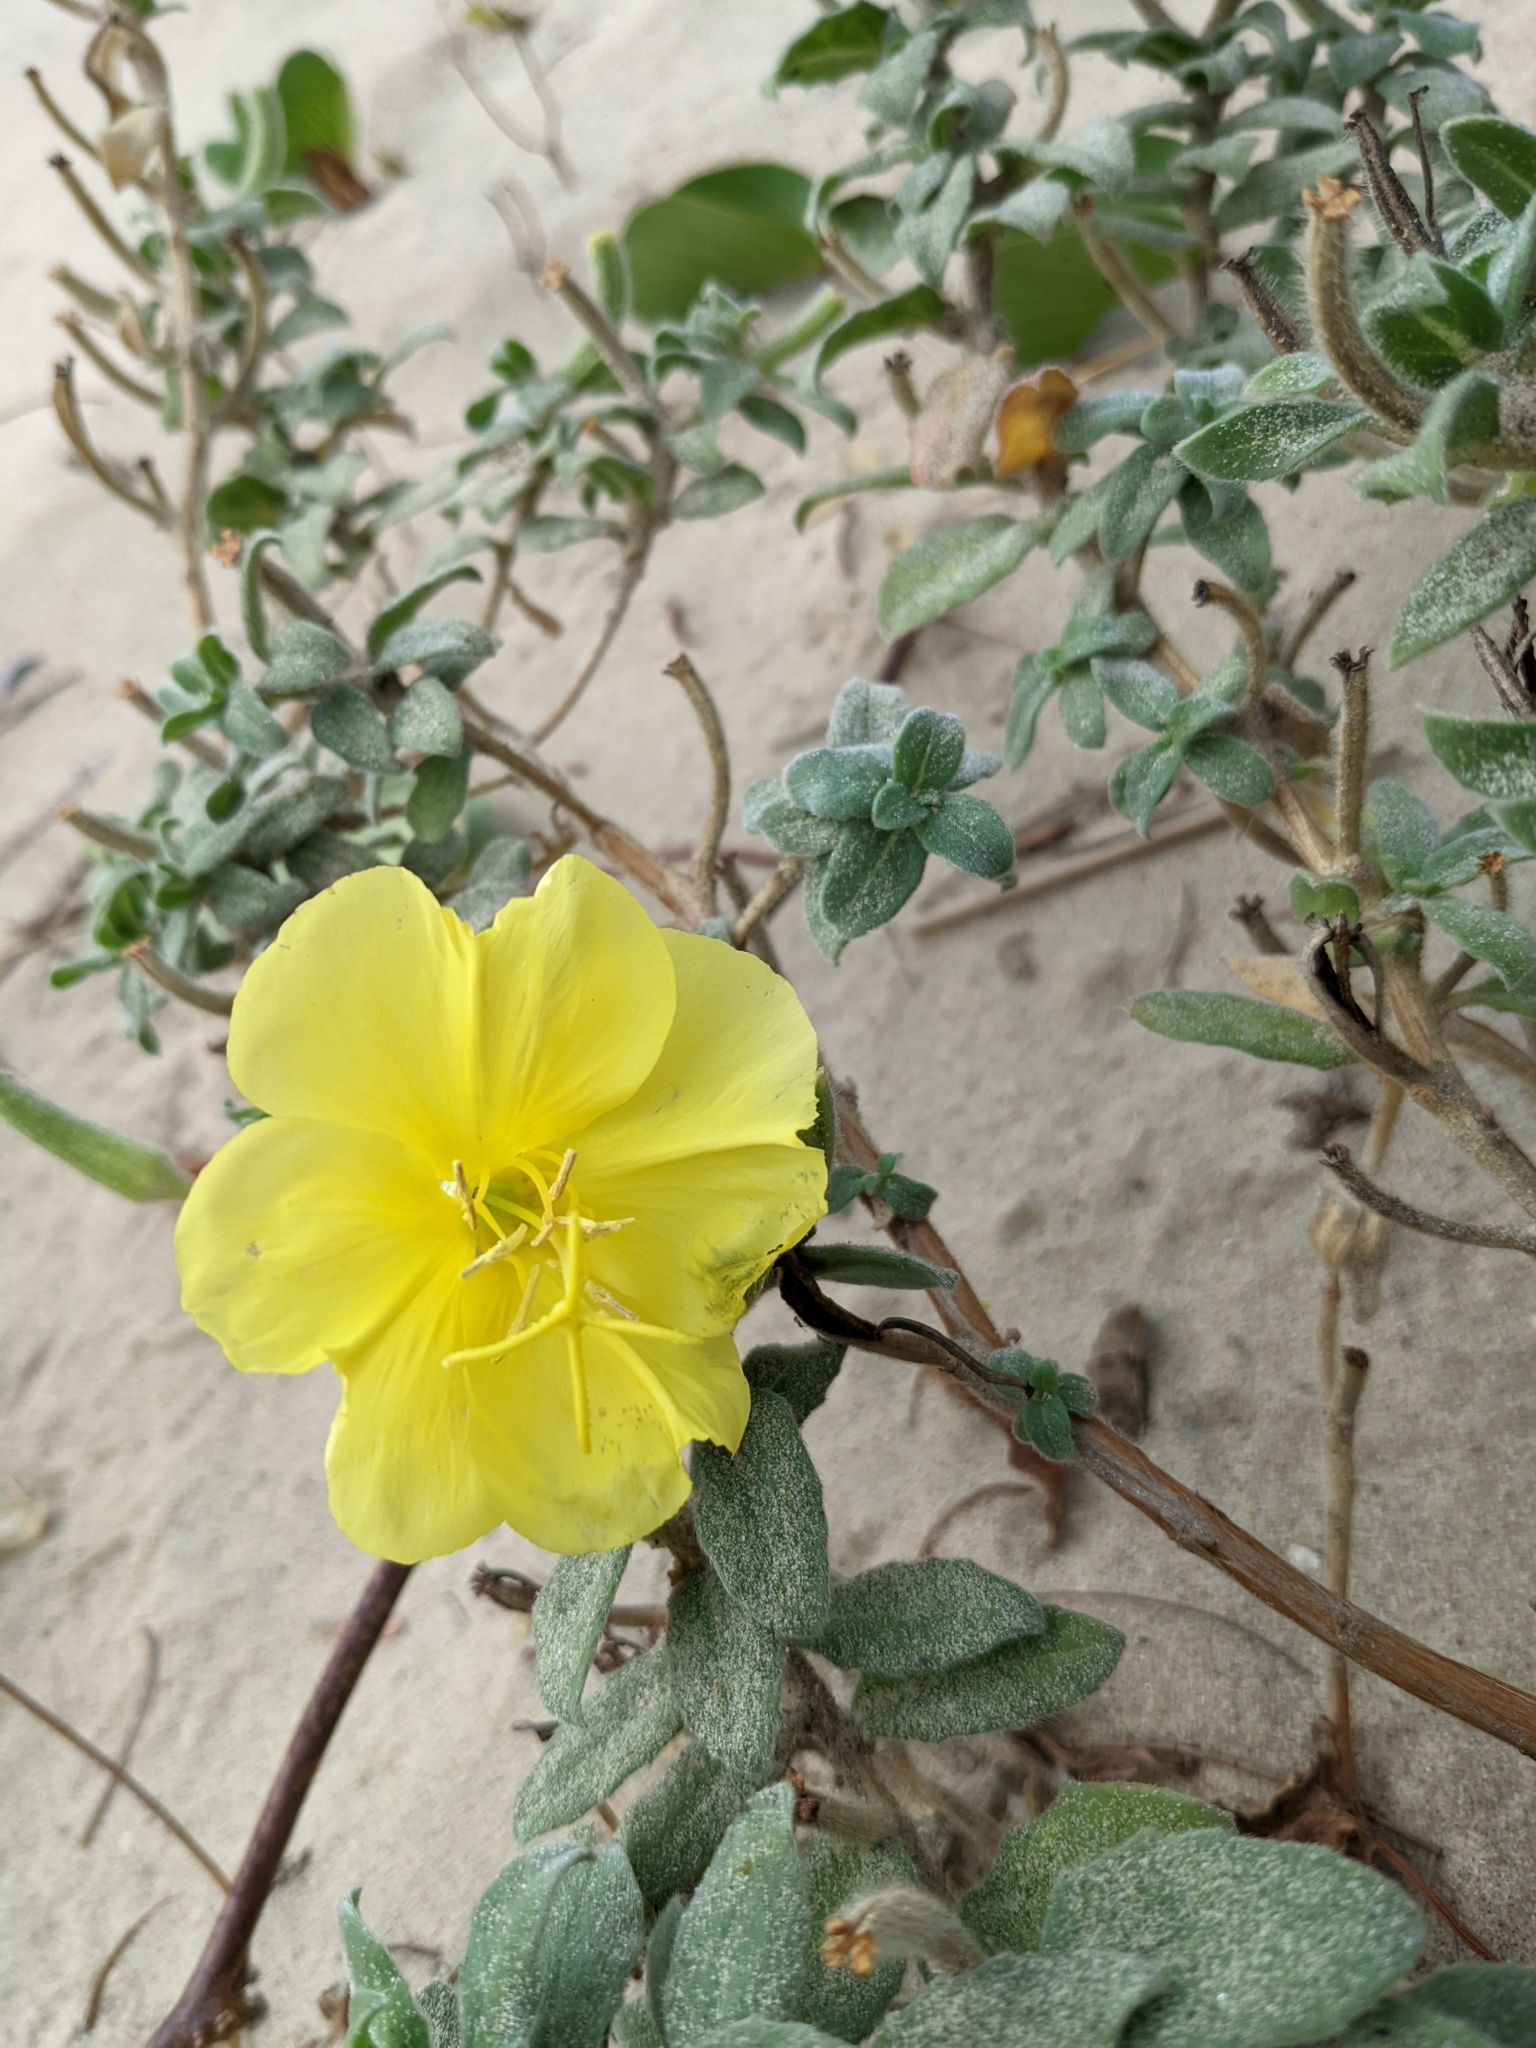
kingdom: Plantae
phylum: Tracheophyta
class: Magnoliopsida
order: Myrtales
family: Onagraceae
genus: Oenothera
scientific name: Oenothera drummondii
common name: Beach evening-primrose
